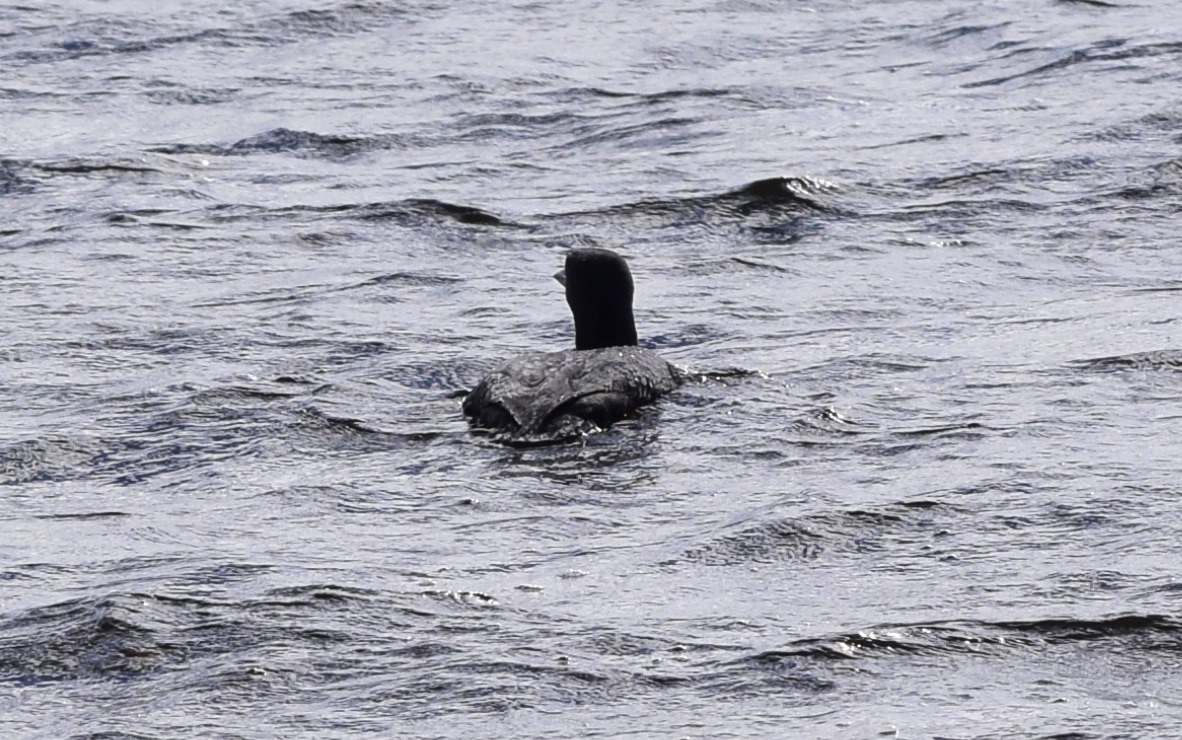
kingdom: Animalia
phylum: Chordata
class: Aves
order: Gaviiformes
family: Gaviidae
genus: Gavia
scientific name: Gavia immer
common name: Common loon
